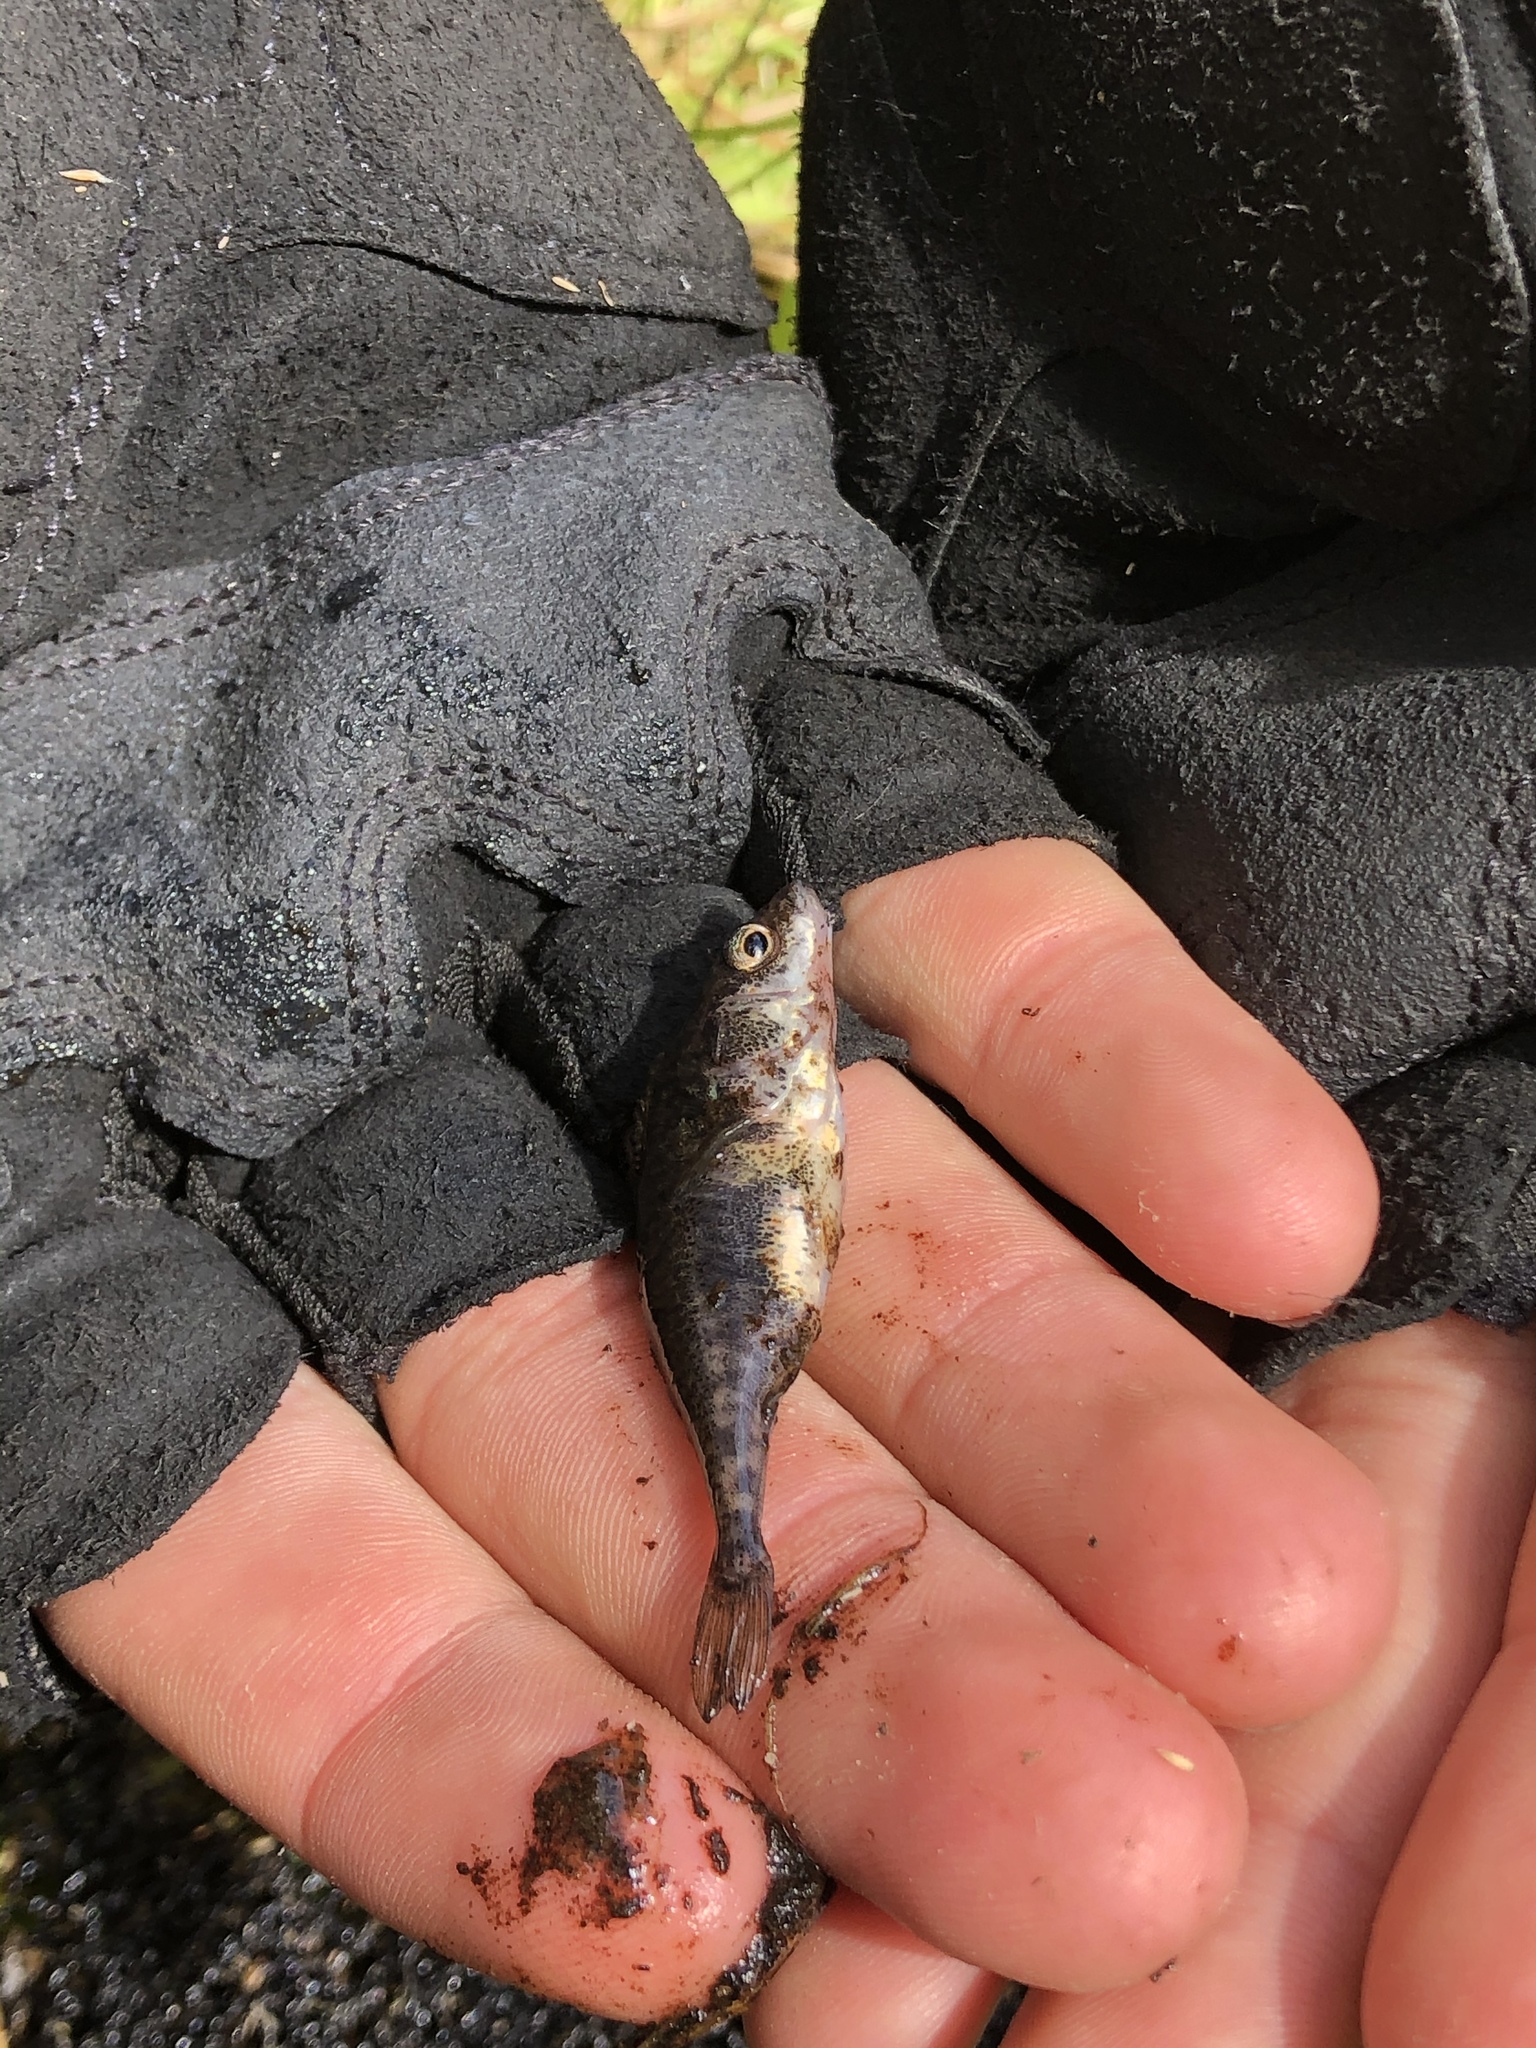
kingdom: Animalia
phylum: Chordata
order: Gasterosteiformes
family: Gasterosteidae
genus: Gasterosteus
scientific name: Gasterosteus aculeatus
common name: Three-spined stickleback
